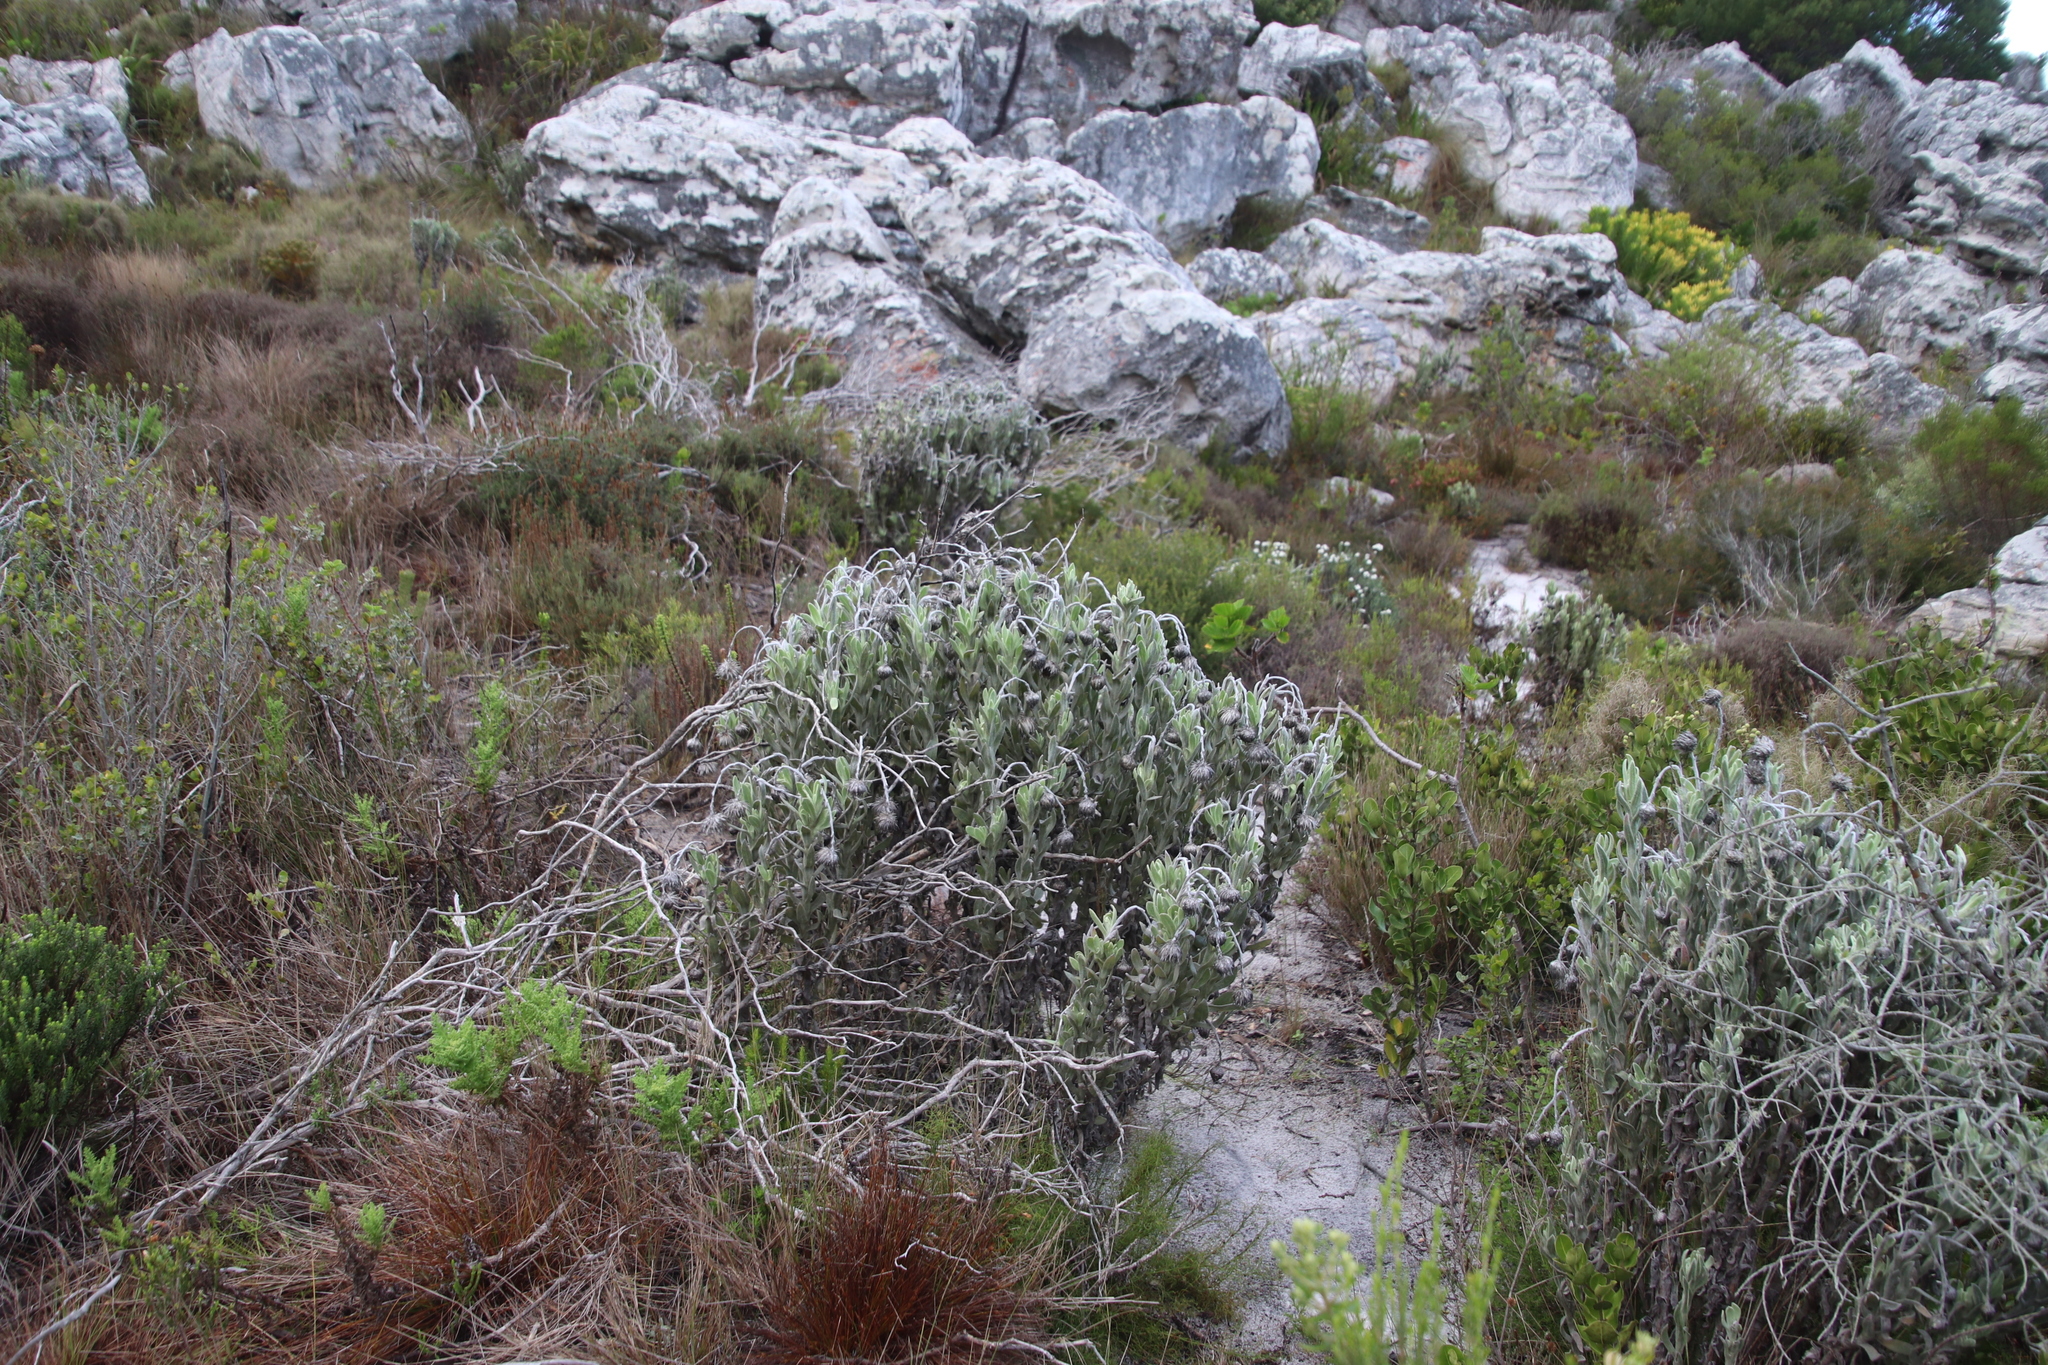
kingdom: Plantae
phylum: Tracheophyta
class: Magnoliopsida
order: Asterales
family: Asteraceae
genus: Syncarpha
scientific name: Syncarpha vestita
